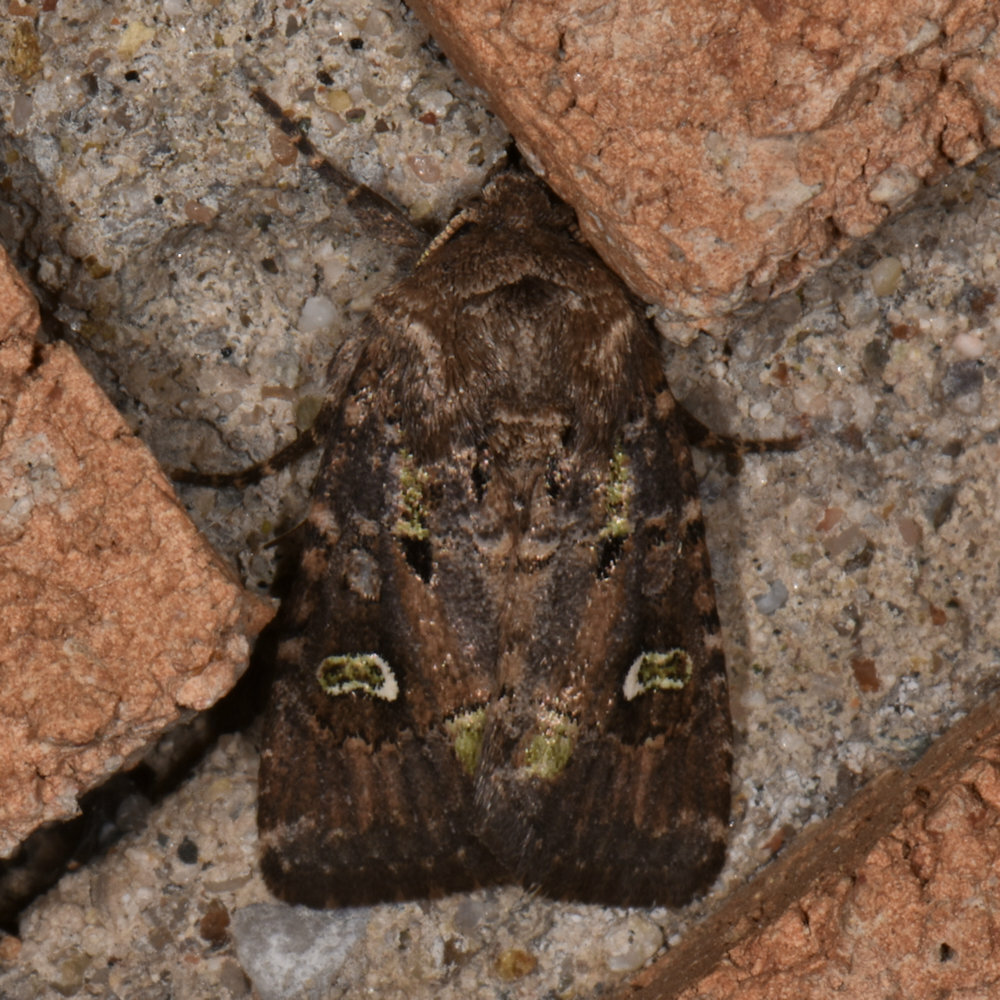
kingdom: Animalia
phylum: Arthropoda
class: Insecta
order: Lepidoptera
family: Noctuidae
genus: Lacinipolia
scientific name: Lacinipolia renigera
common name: Kidney-spotted minor
